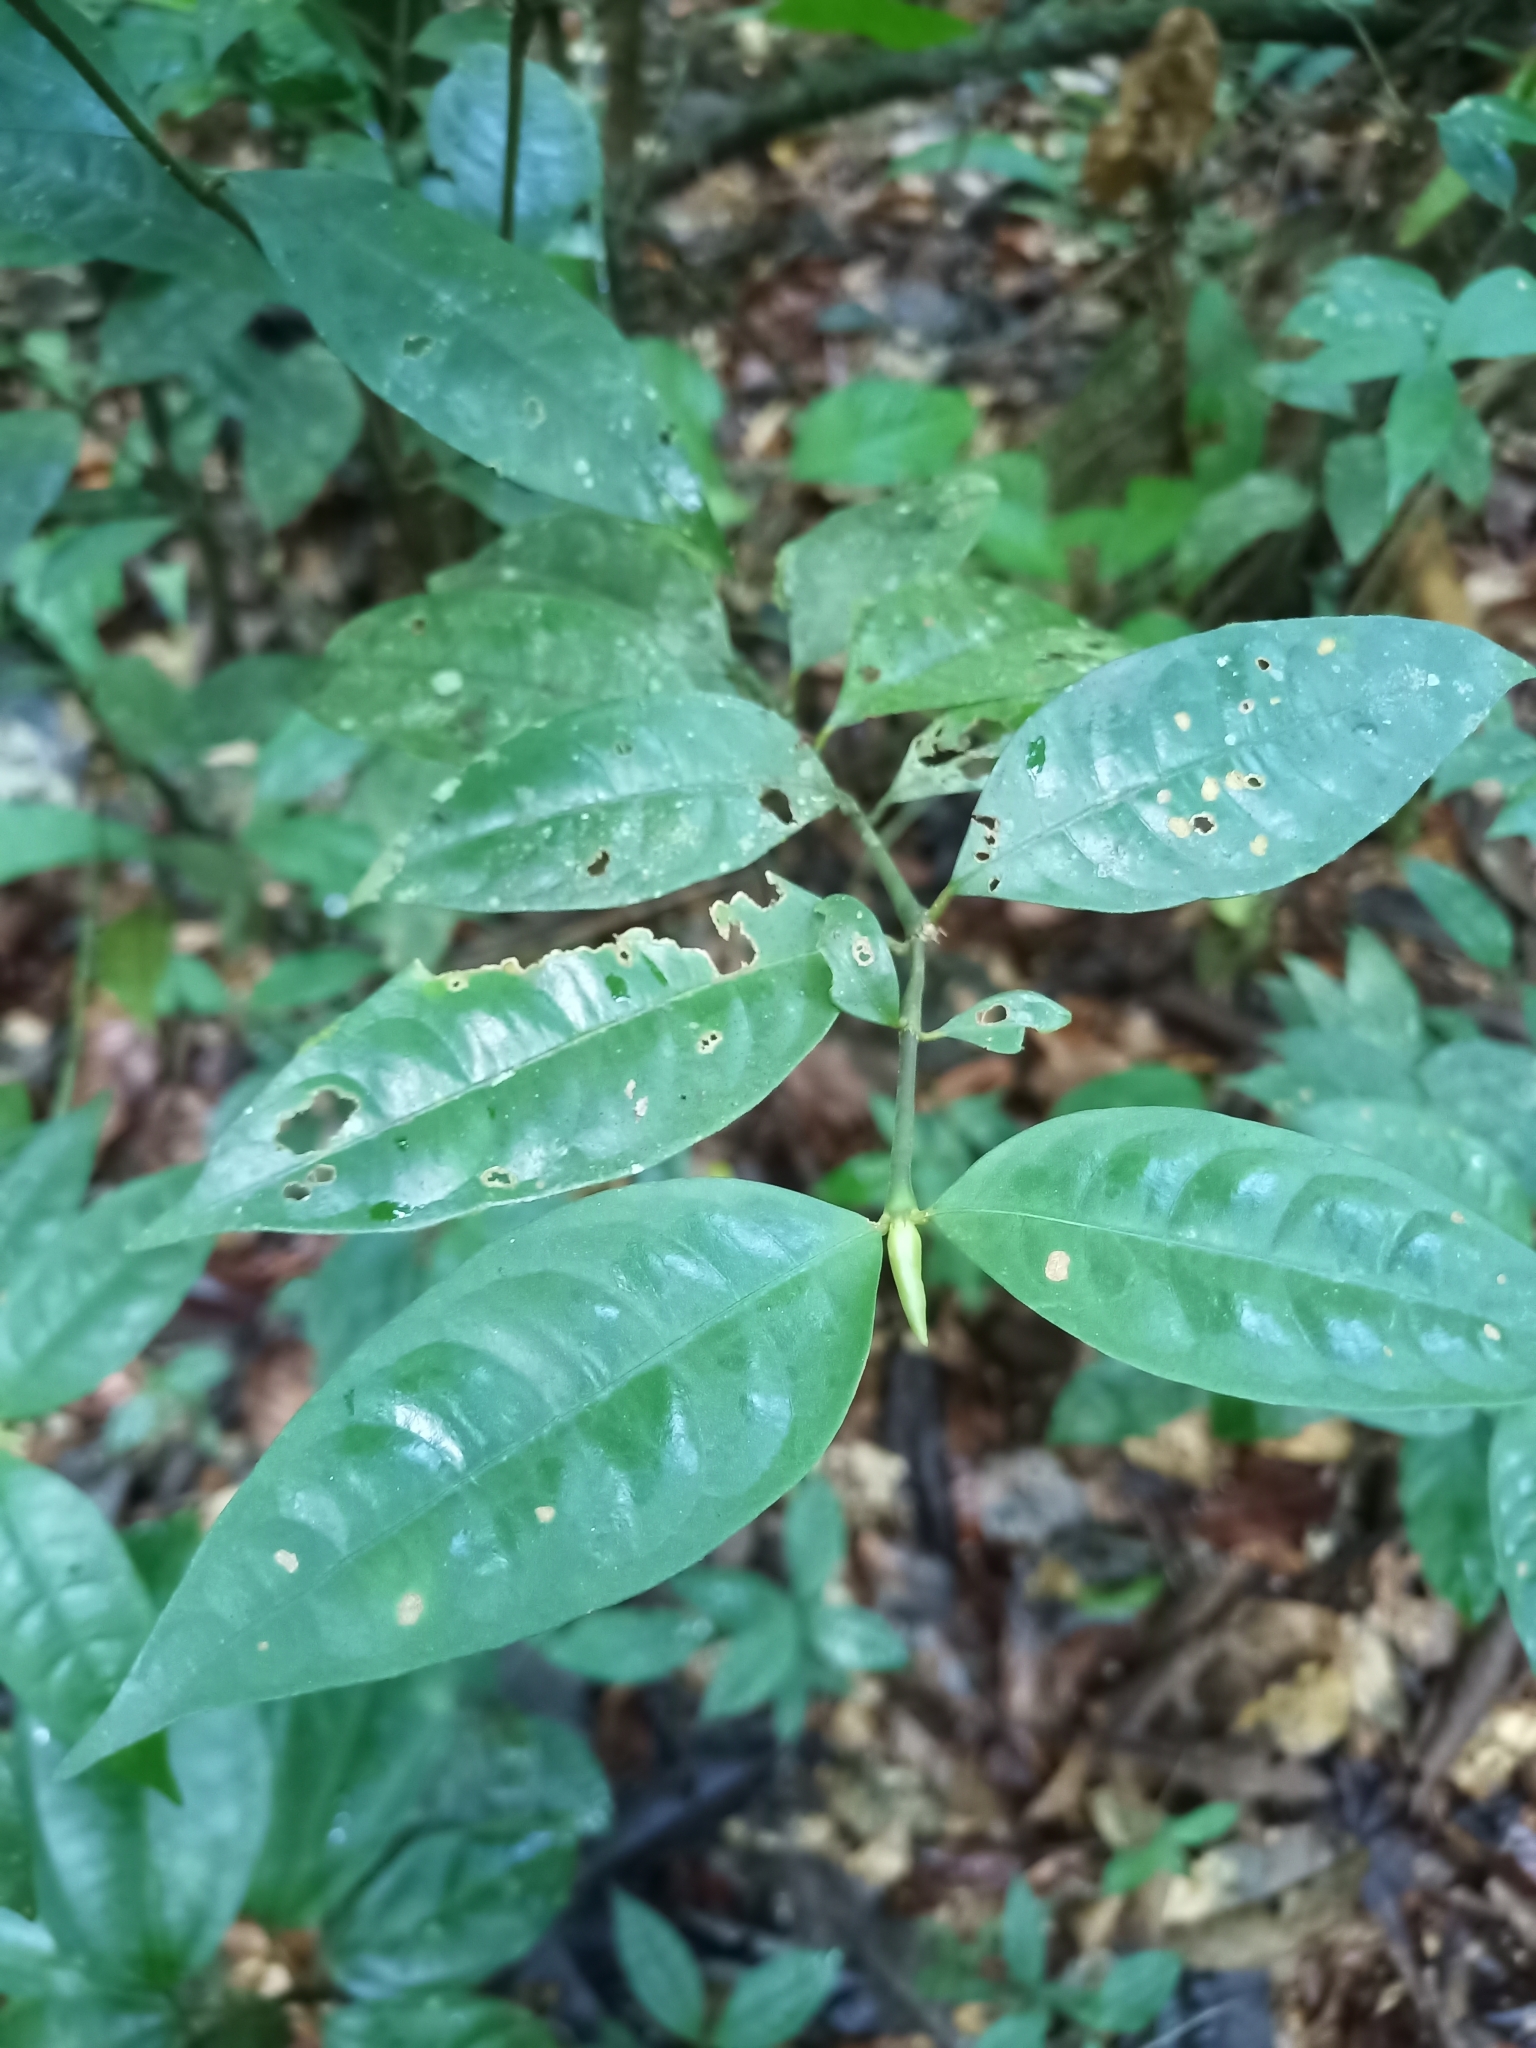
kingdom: Plantae
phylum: Tracheophyta
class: Magnoliopsida
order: Gentianales
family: Rubiaceae
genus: Palicourea
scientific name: Palicourea oblonga
